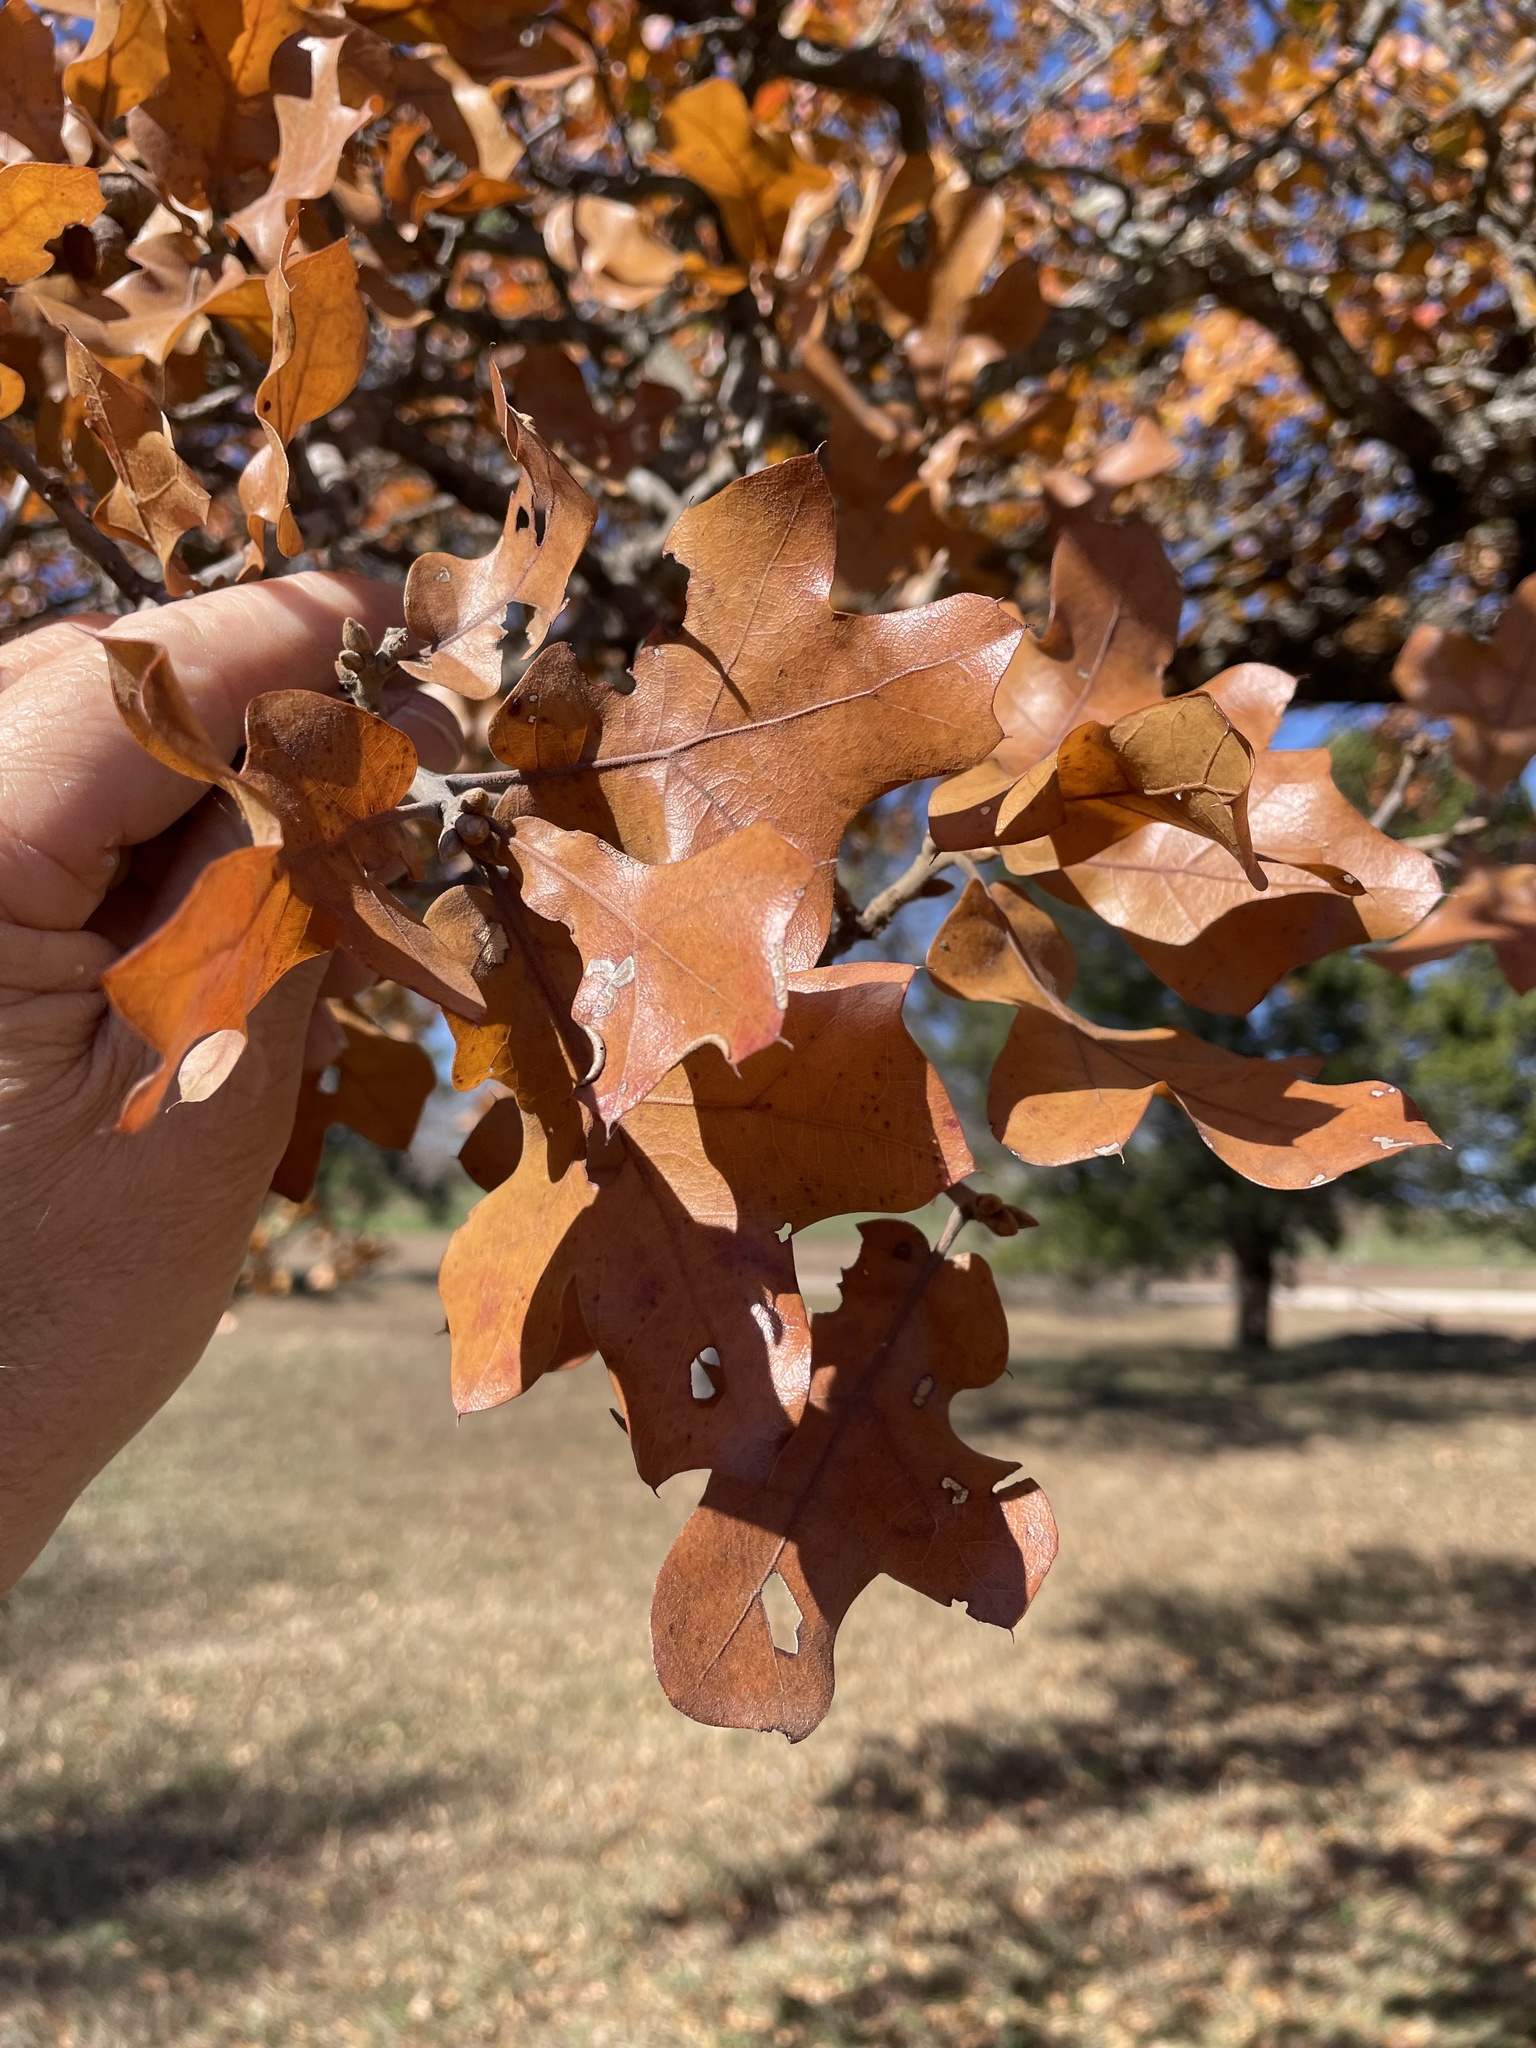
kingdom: Plantae
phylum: Tracheophyta
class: Magnoliopsida
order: Fagales
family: Fagaceae
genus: Quercus
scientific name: Quercus marilandica
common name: Blackjack oak
